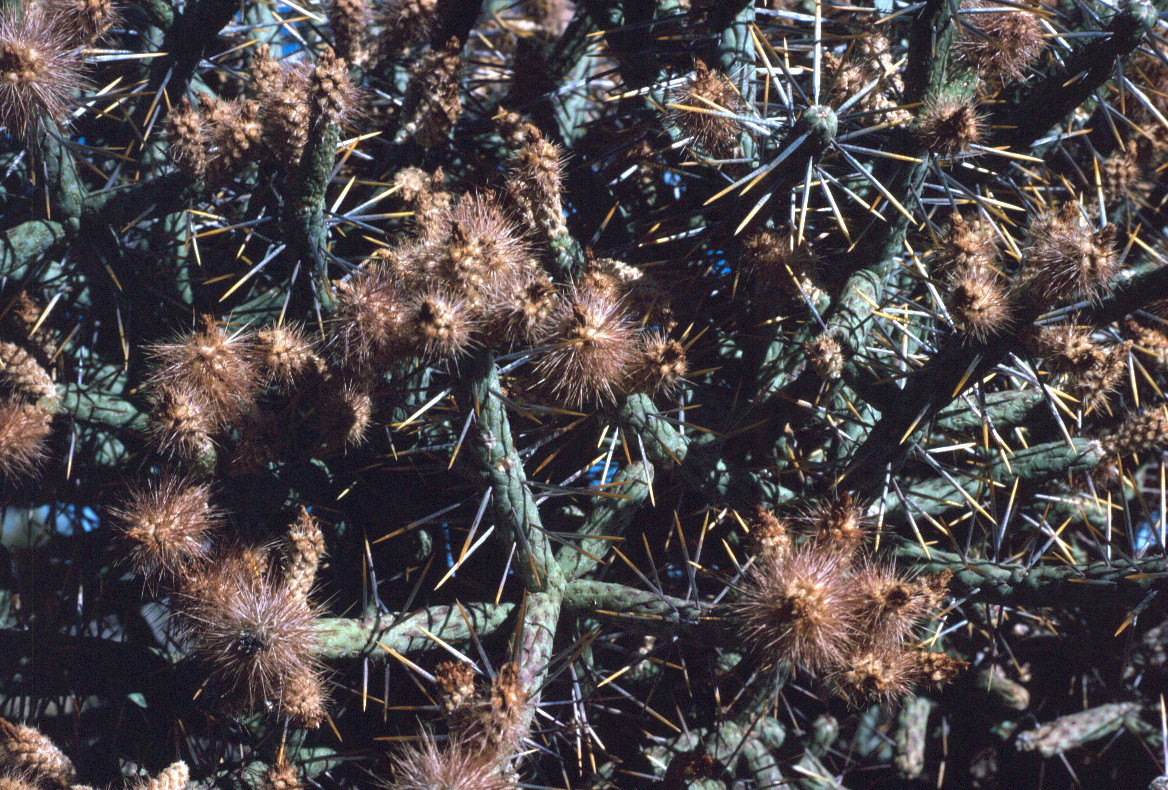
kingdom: Plantae
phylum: Tracheophyta
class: Magnoliopsida
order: Caryophyllales
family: Cactaceae
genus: Cylindropuntia
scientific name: Cylindropuntia ramosissima
